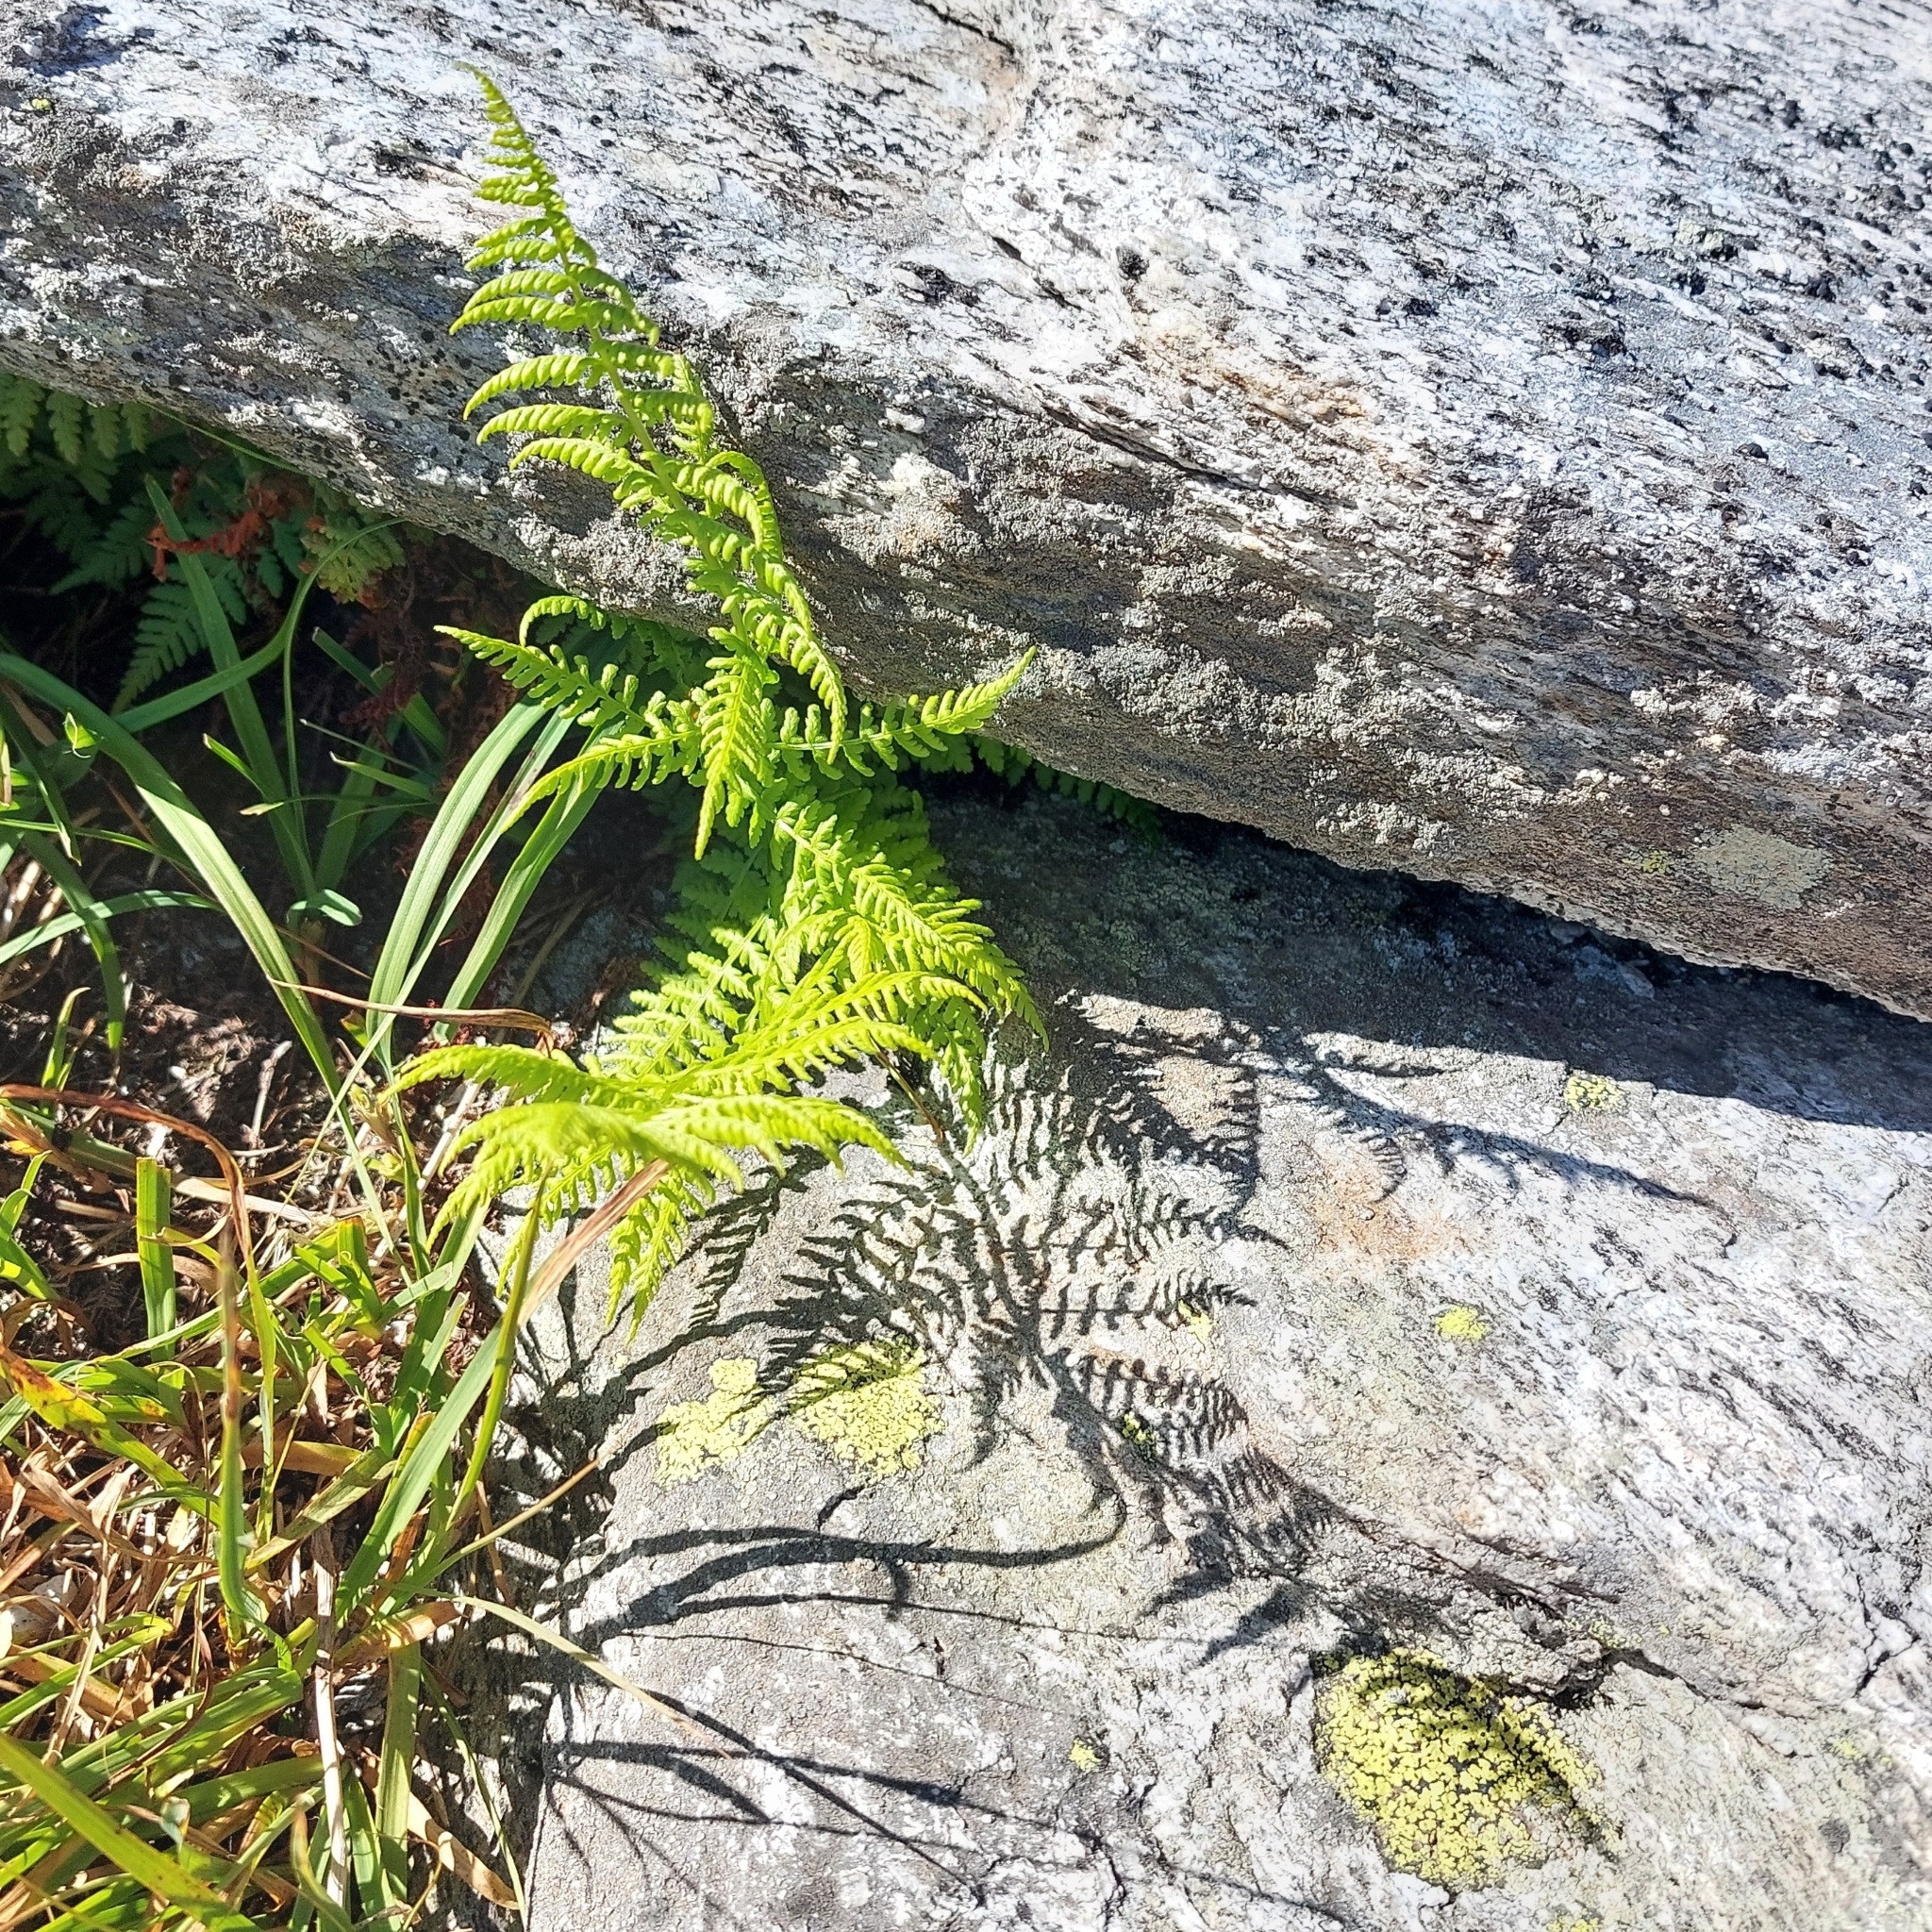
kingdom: Plantae
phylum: Tracheophyta
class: Polypodiopsida
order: Polypodiales
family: Athyriaceae
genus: Pseudathyrium
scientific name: Pseudathyrium alpestre
